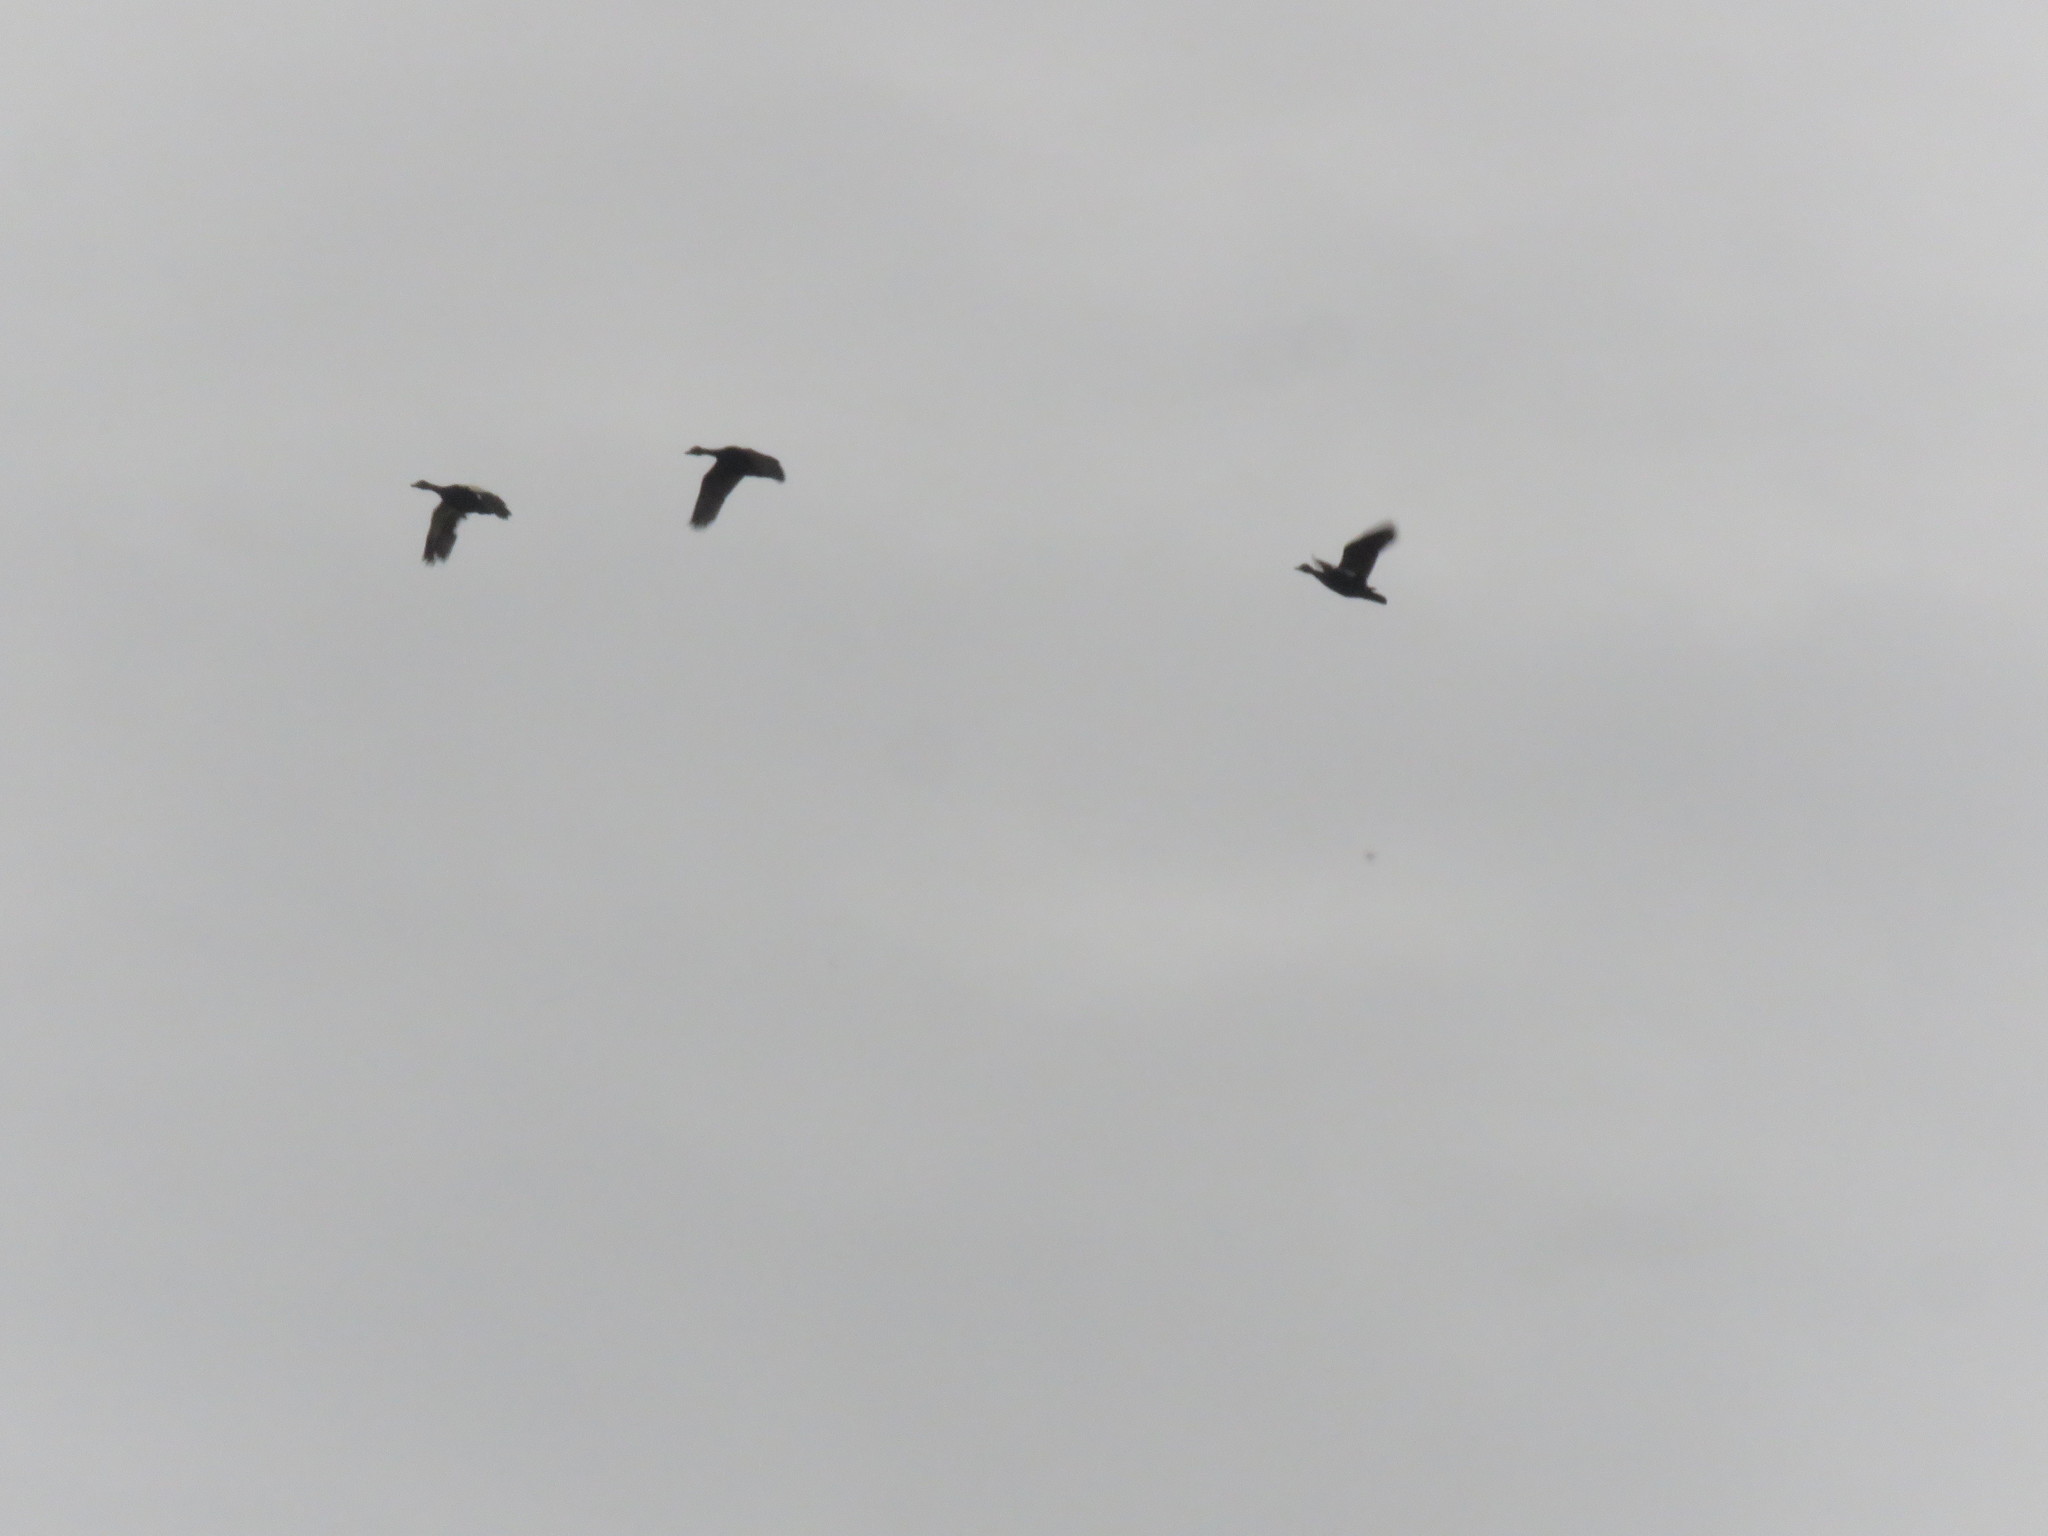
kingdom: Animalia
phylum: Chordata
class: Aves
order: Anseriformes
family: Anatidae
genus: Cairina
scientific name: Cairina moschata
